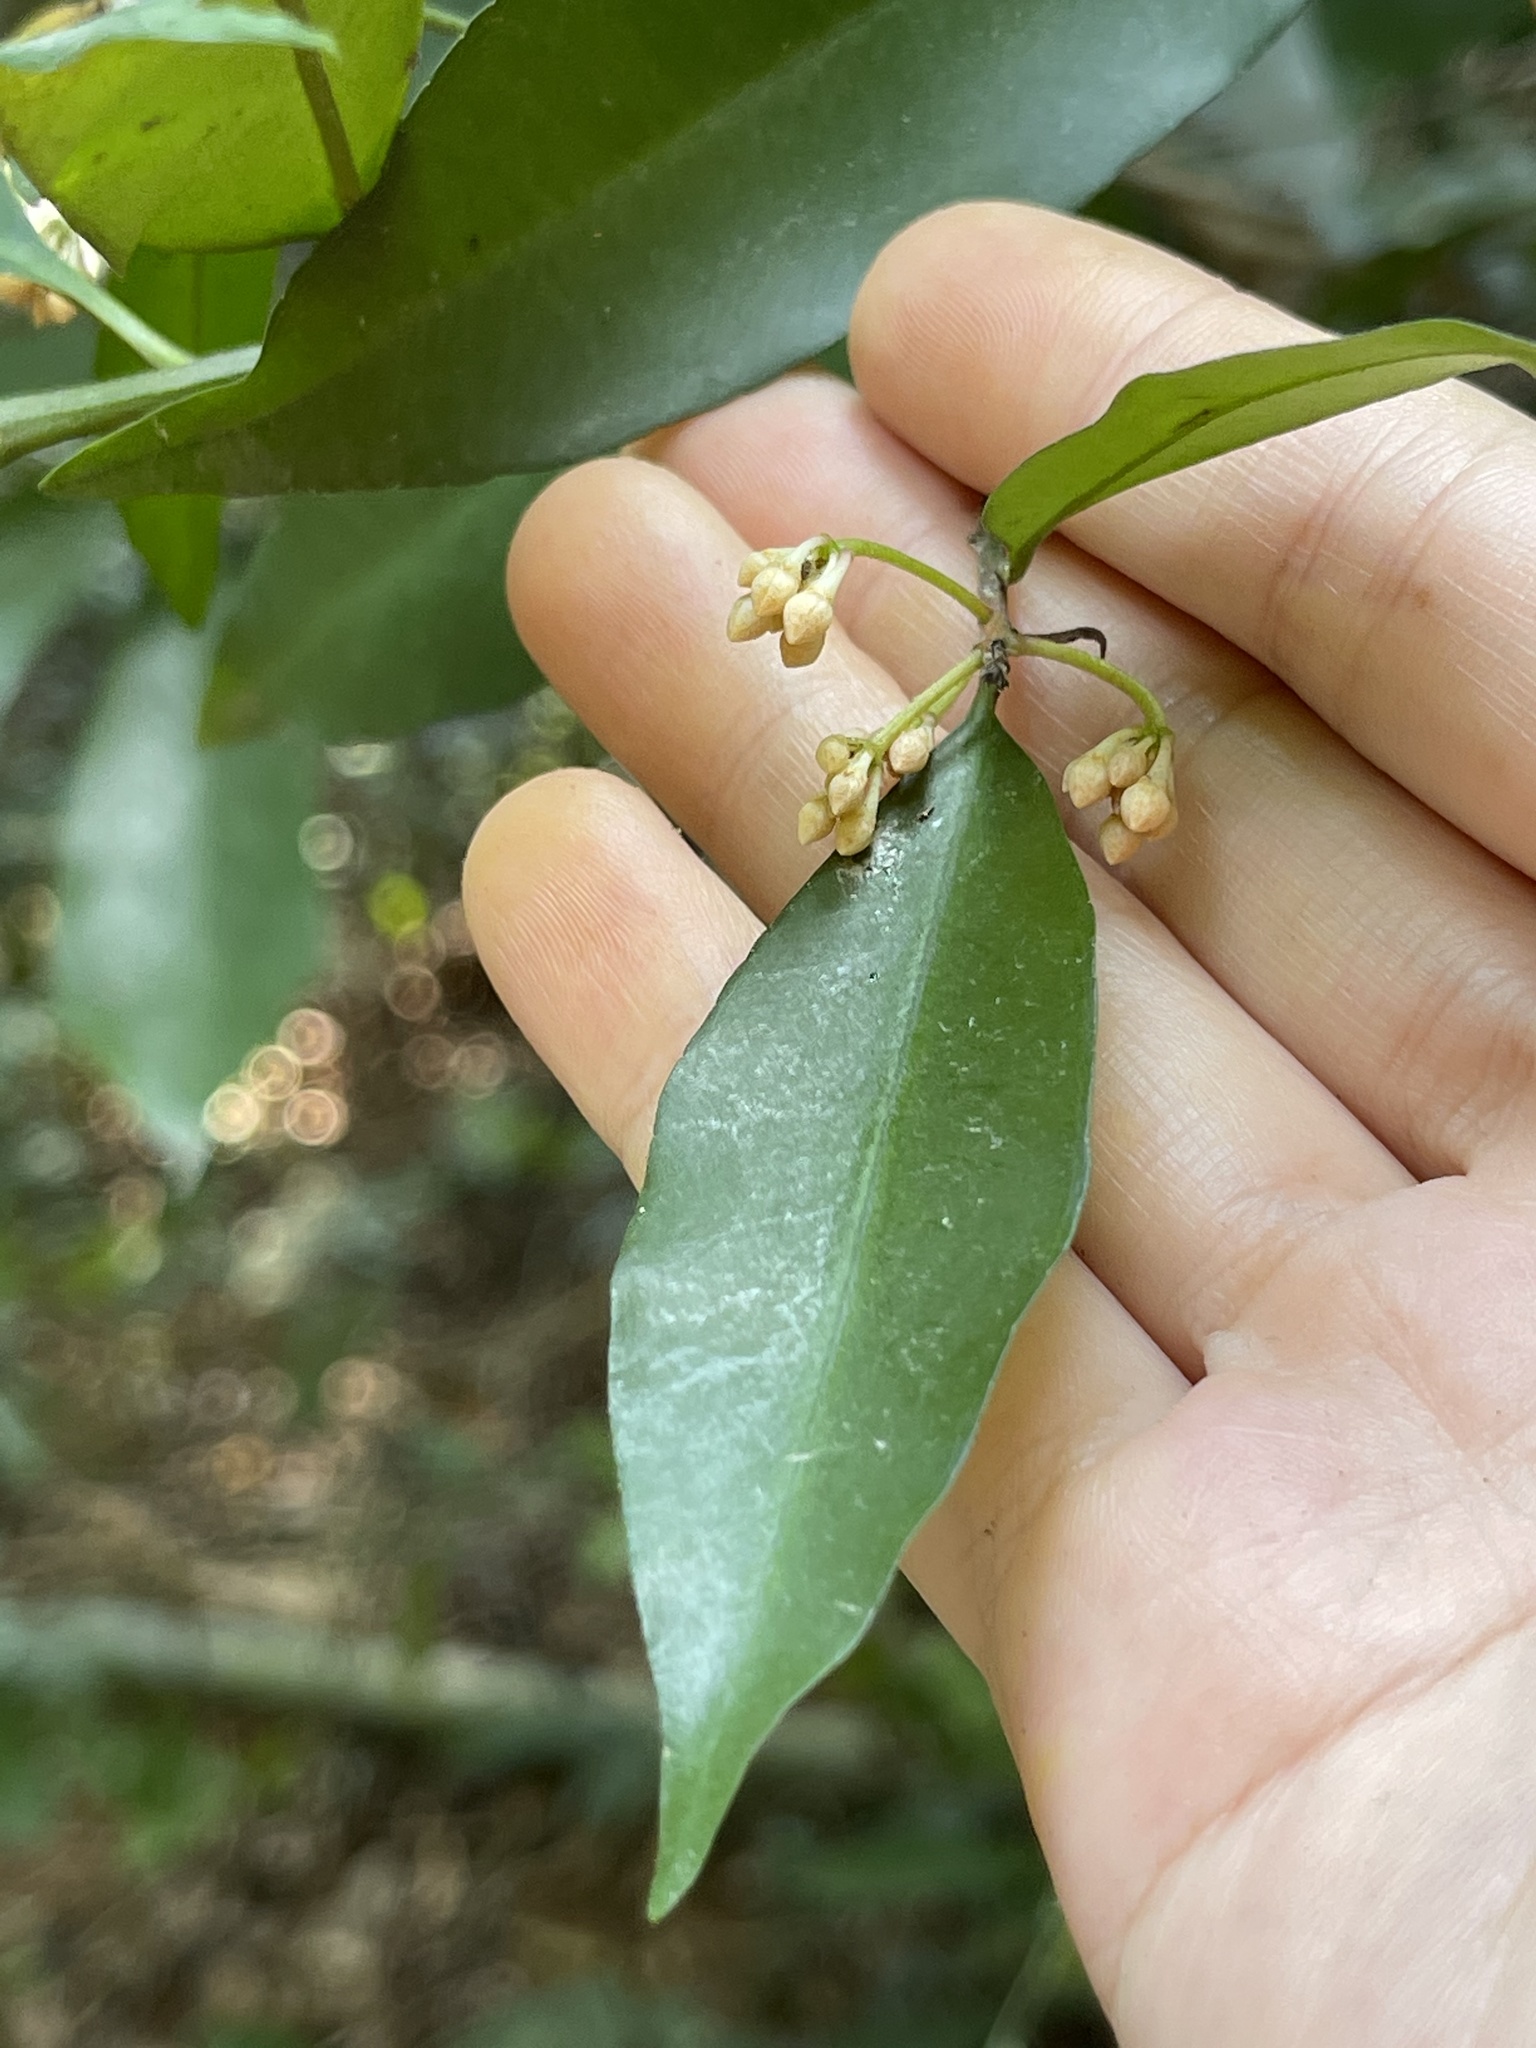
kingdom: Plantae
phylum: Tracheophyta
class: Magnoliopsida
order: Ericales
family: Primulaceae
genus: Ardisia
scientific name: Ardisia quinquegona
